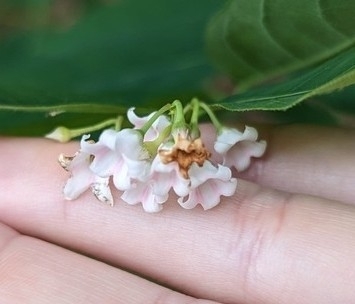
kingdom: Plantae
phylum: Tracheophyta
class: Magnoliopsida
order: Gentianales
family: Apocynaceae
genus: Apocynum
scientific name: Apocynum androsaemifolium
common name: Spreading dogbane
